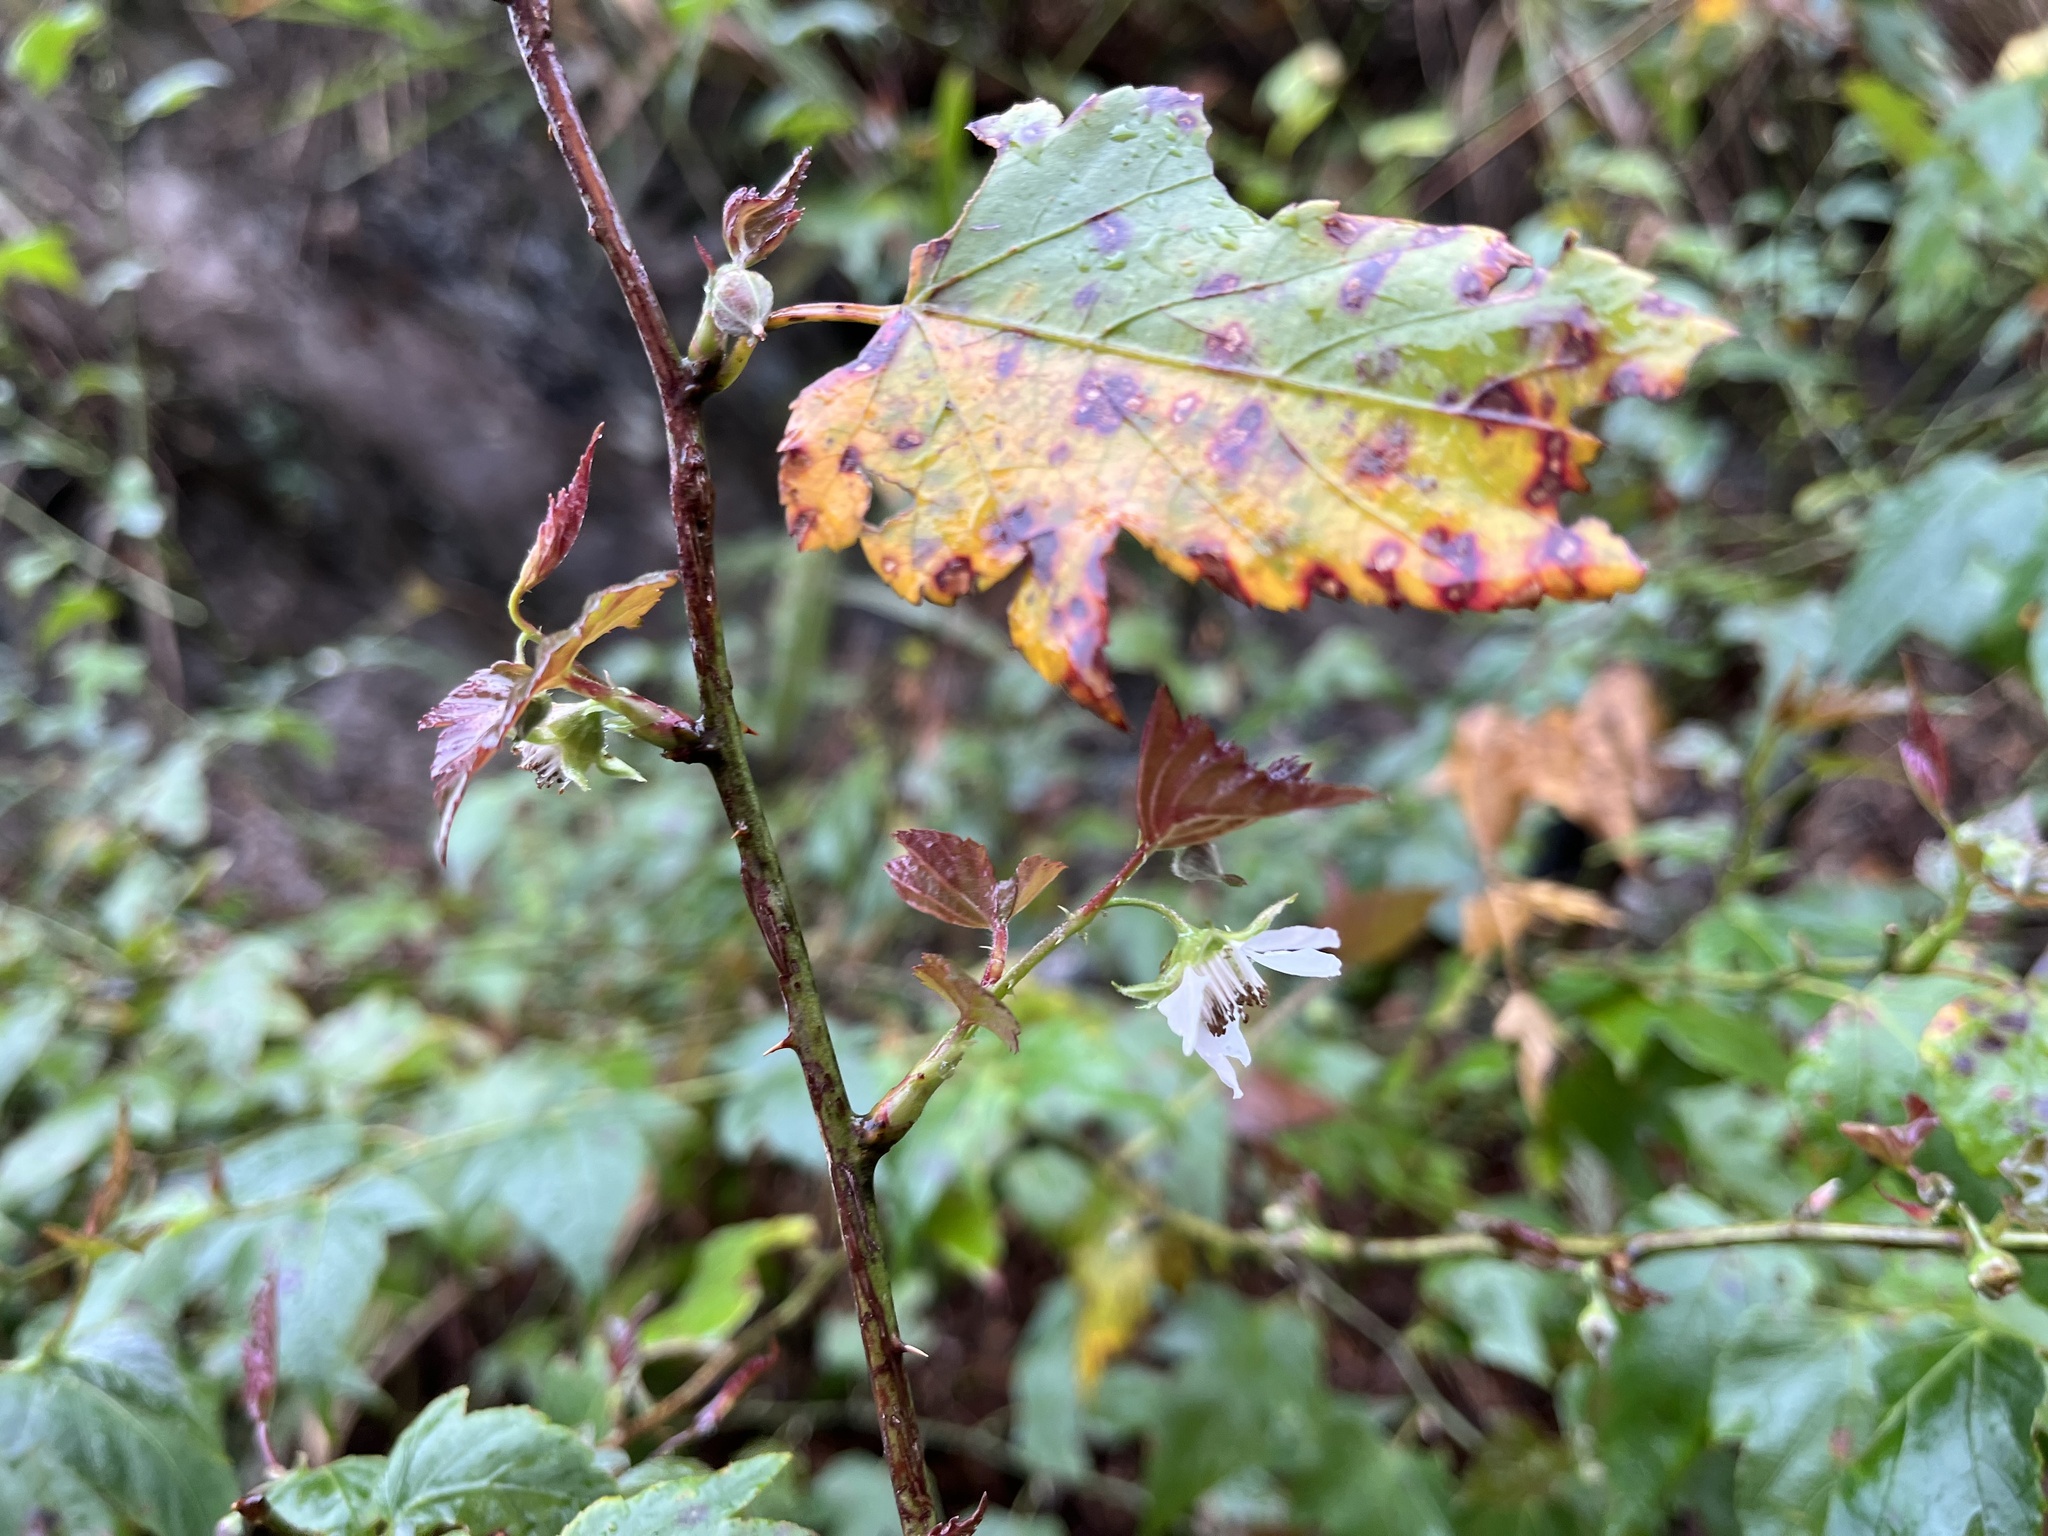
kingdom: Plantae
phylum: Tracheophyta
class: Magnoliopsida
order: Rosales
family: Rosaceae
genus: Rubus
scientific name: Rubus corchorifolius
